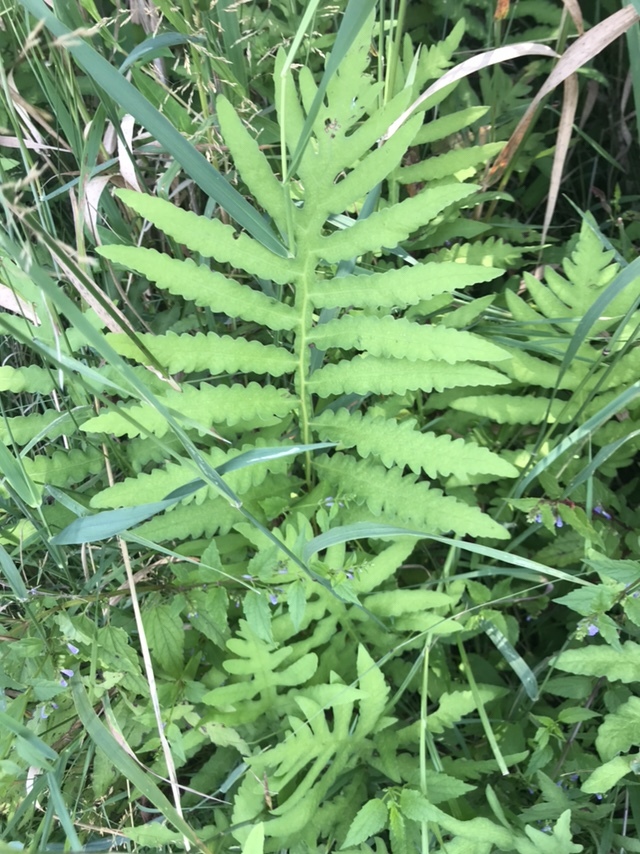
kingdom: Plantae
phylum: Tracheophyta
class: Polypodiopsida
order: Polypodiales
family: Onocleaceae
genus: Onoclea
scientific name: Onoclea sensibilis
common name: Sensitive fern
